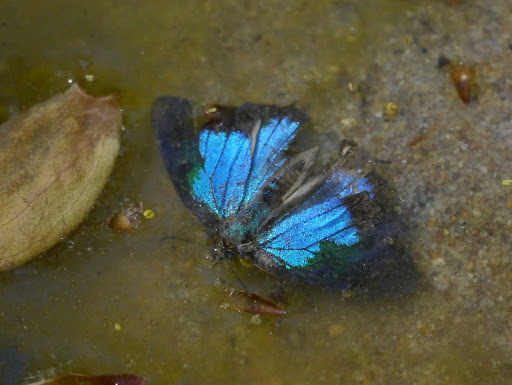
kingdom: Animalia
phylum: Arthropoda
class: Insecta
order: Lepidoptera
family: Lycaenidae
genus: Parrhasius
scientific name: Parrhasius m-album
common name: White m hairstreak
